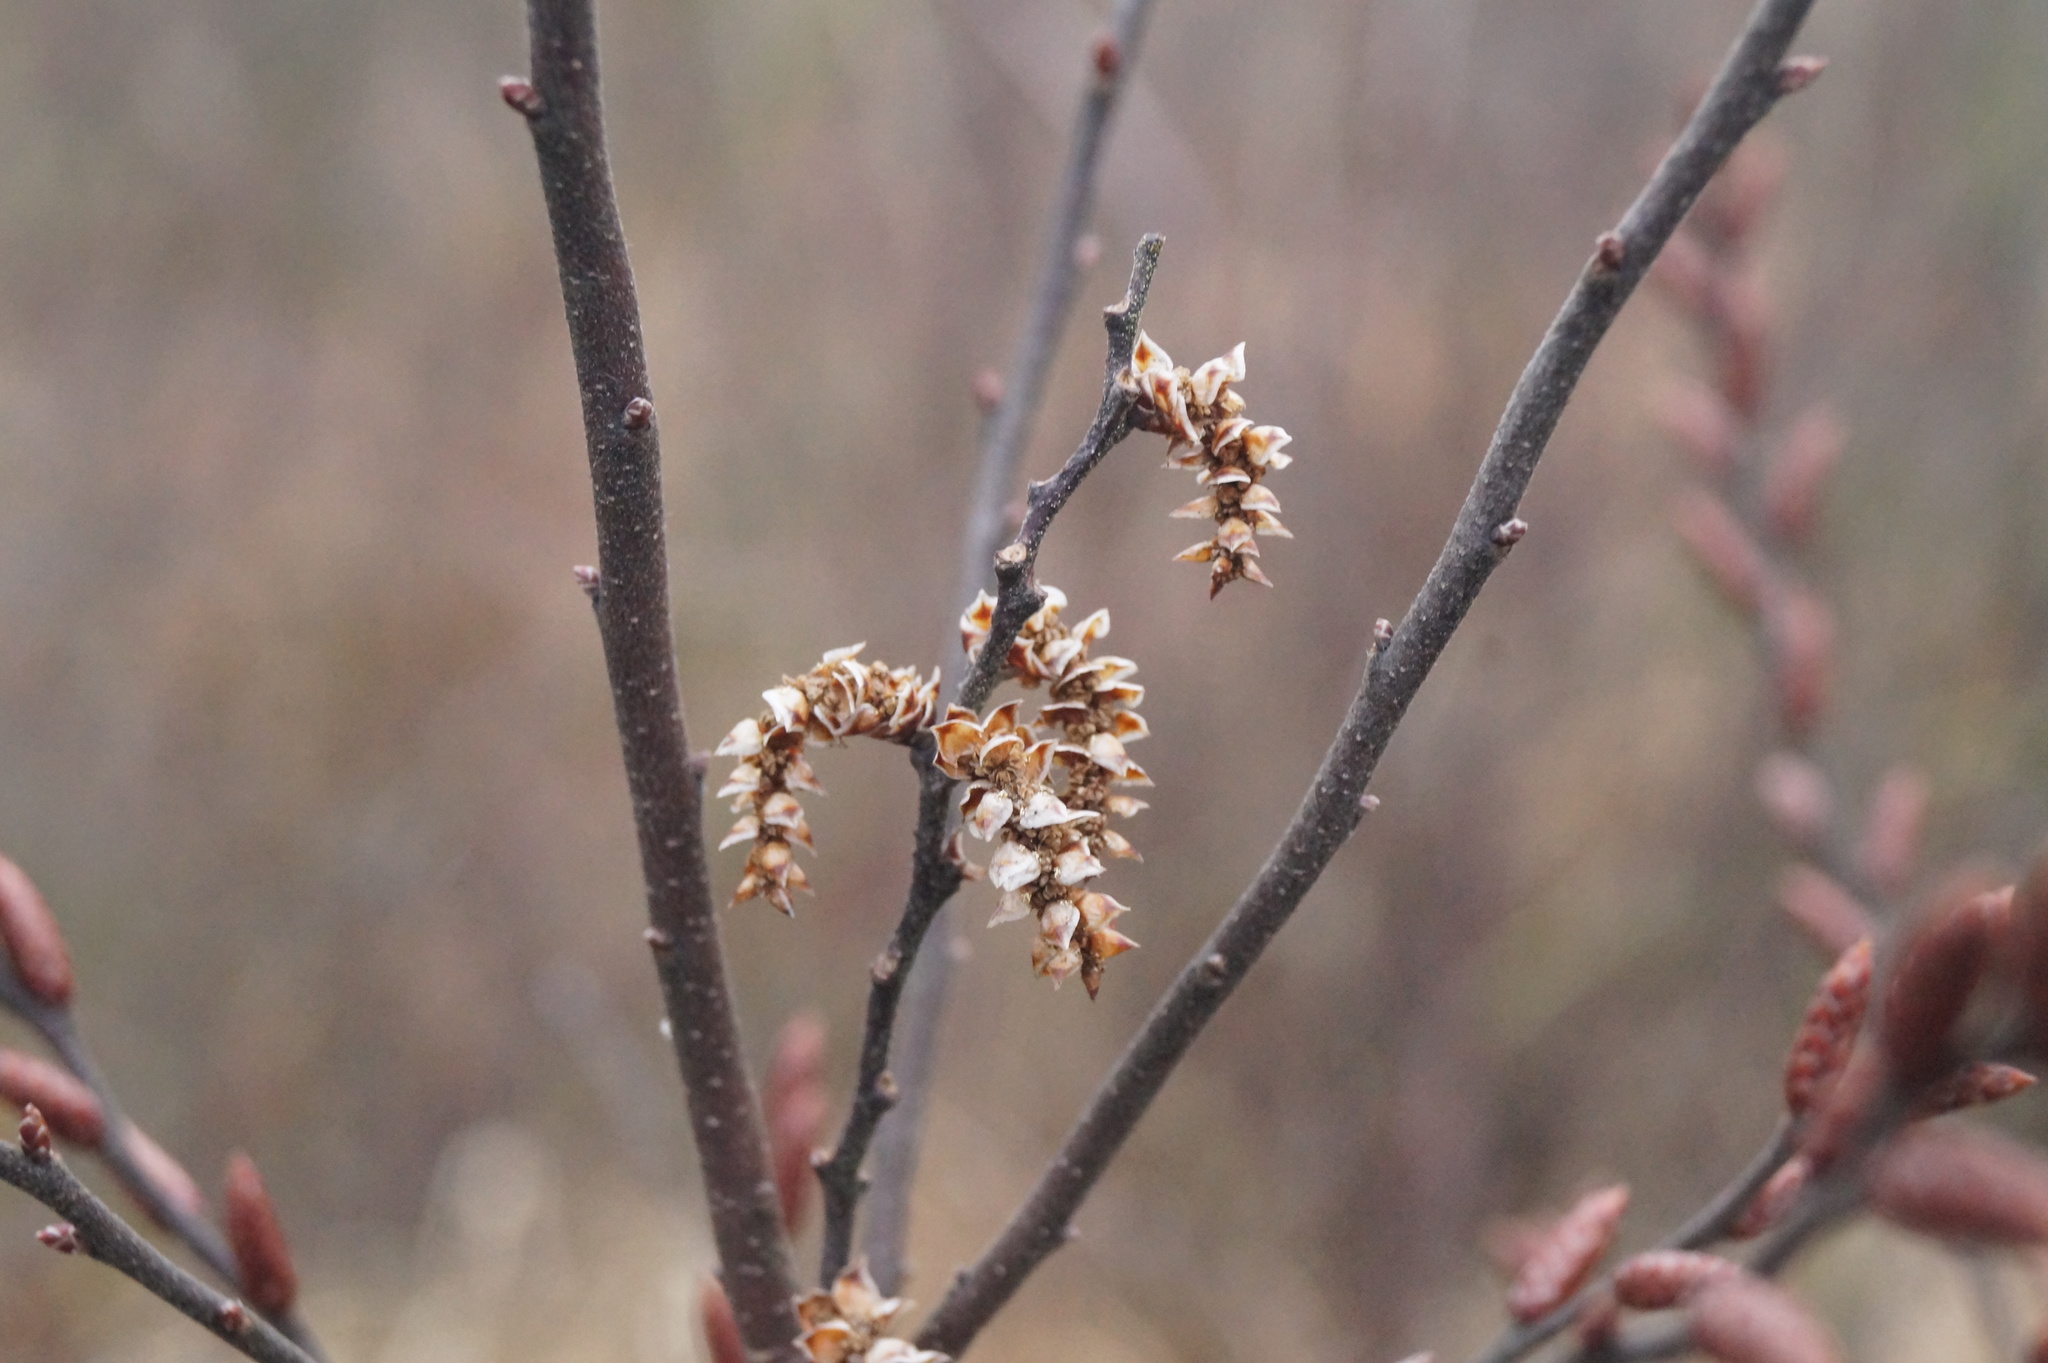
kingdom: Plantae
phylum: Tracheophyta
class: Magnoliopsida
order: Fagales
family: Myricaceae
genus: Myrica
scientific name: Myrica gale
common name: Sweet gale
